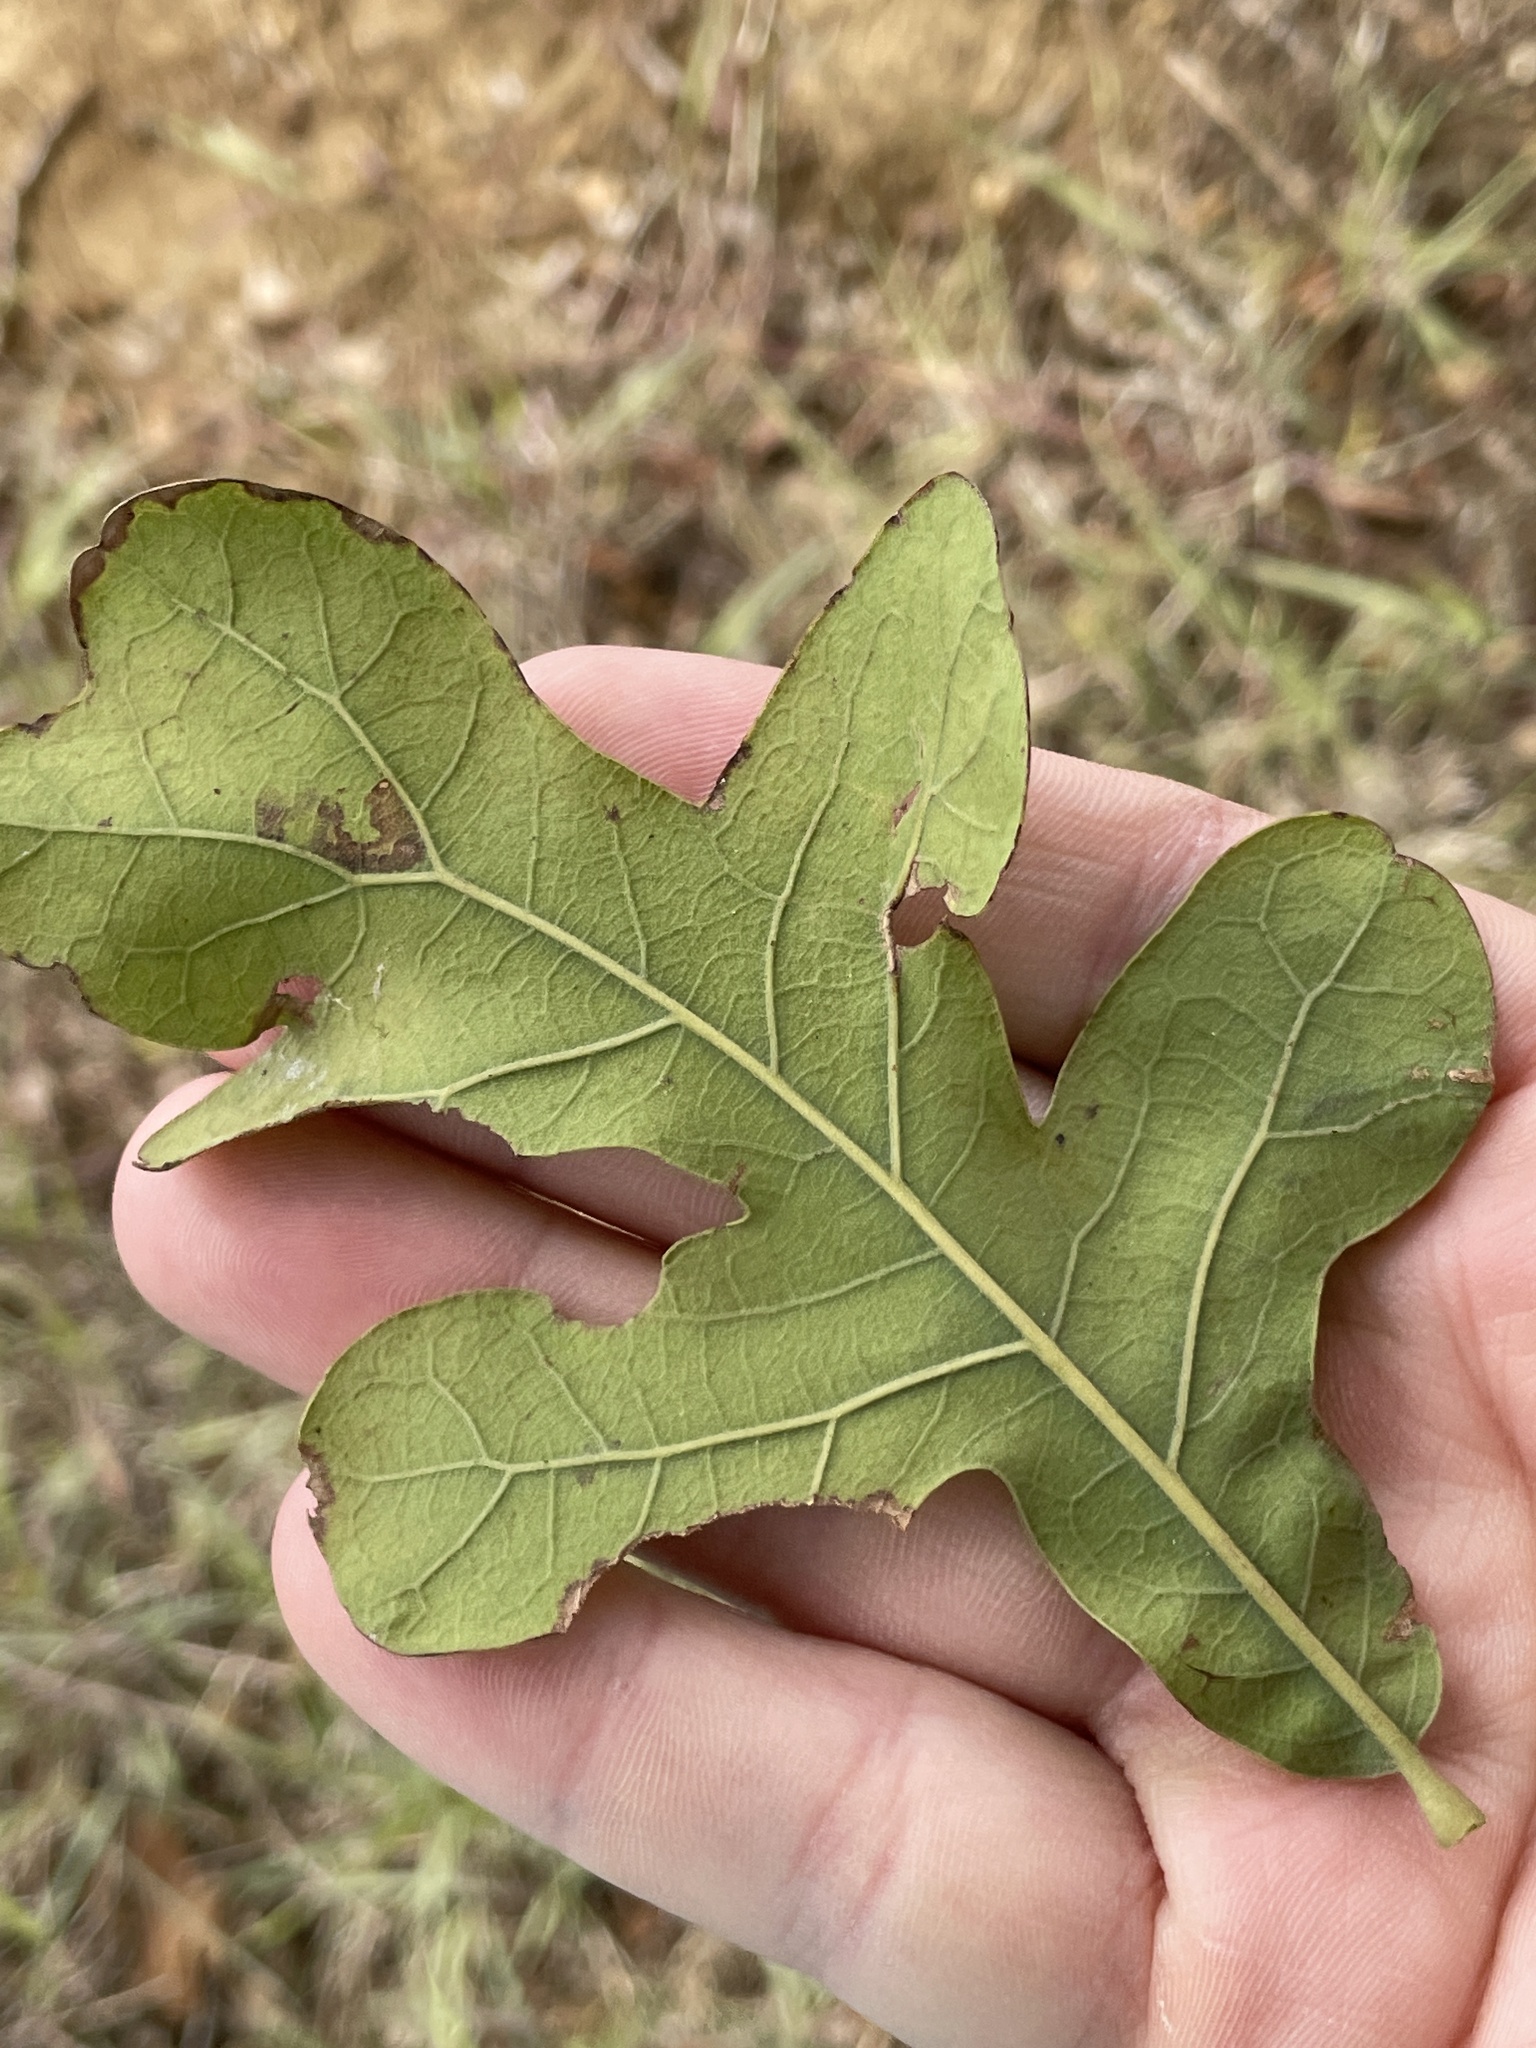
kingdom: Plantae
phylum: Tracheophyta
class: Magnoliopsida
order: Fagales
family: Fagaceae
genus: Quercus
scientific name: Quercus stellata
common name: Post oak
